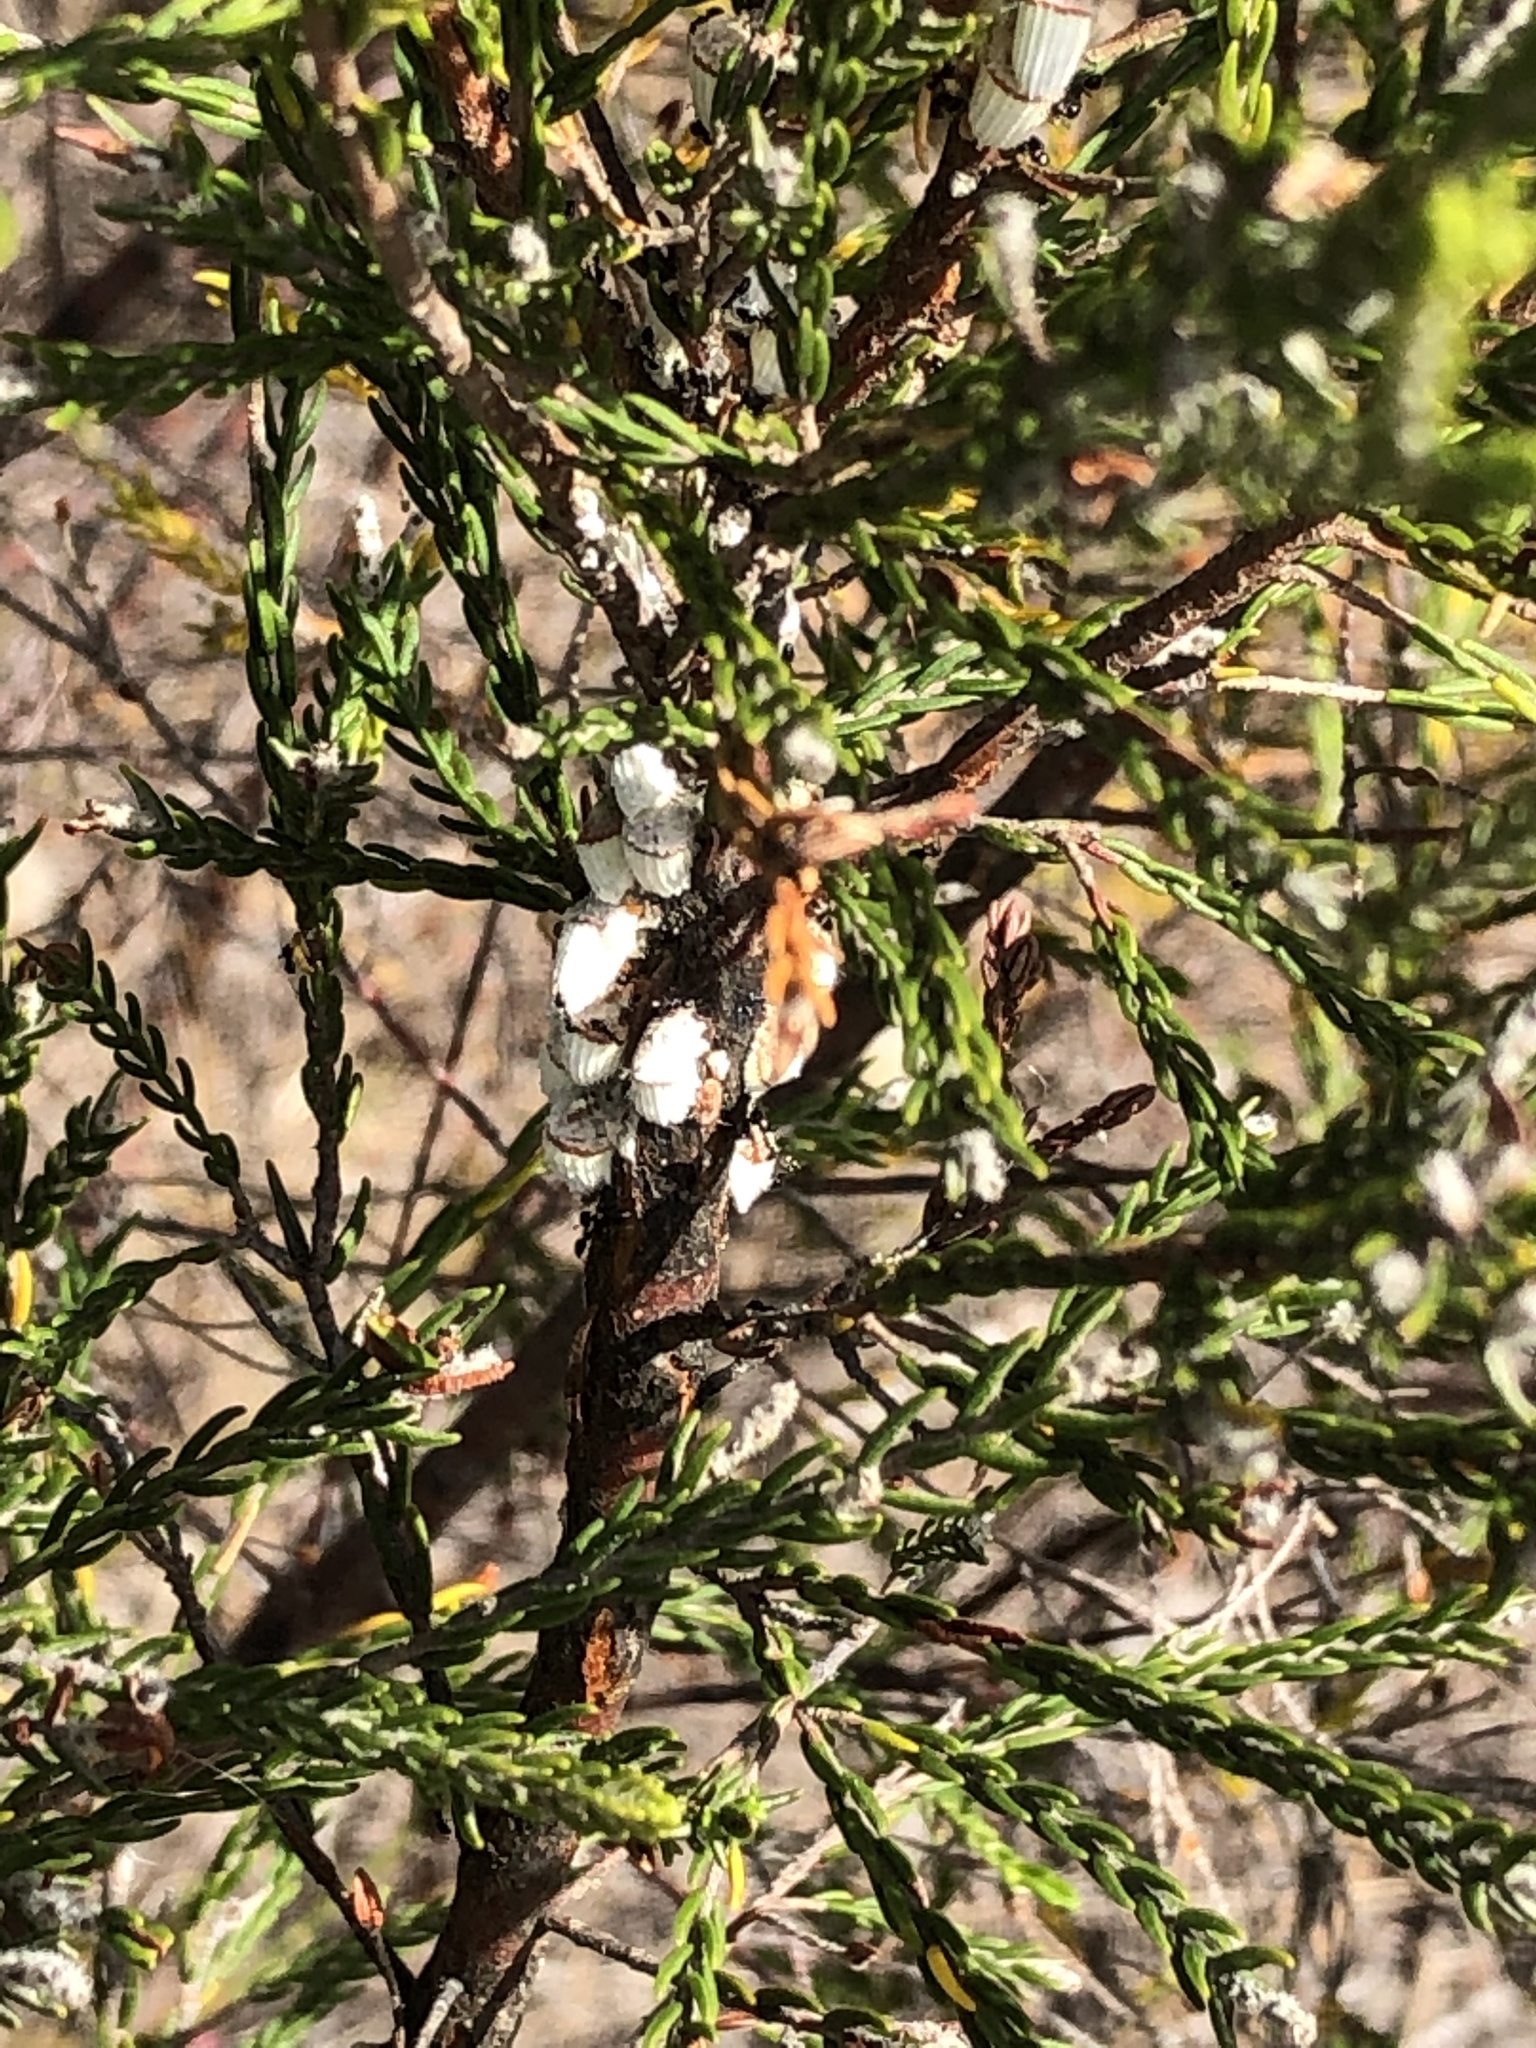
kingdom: Animalia
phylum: Arthropoda
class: Insecta
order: Hemiptera
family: Margarodidae
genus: Icerya
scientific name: Icerya purchasi
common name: Cottony cushion scale
